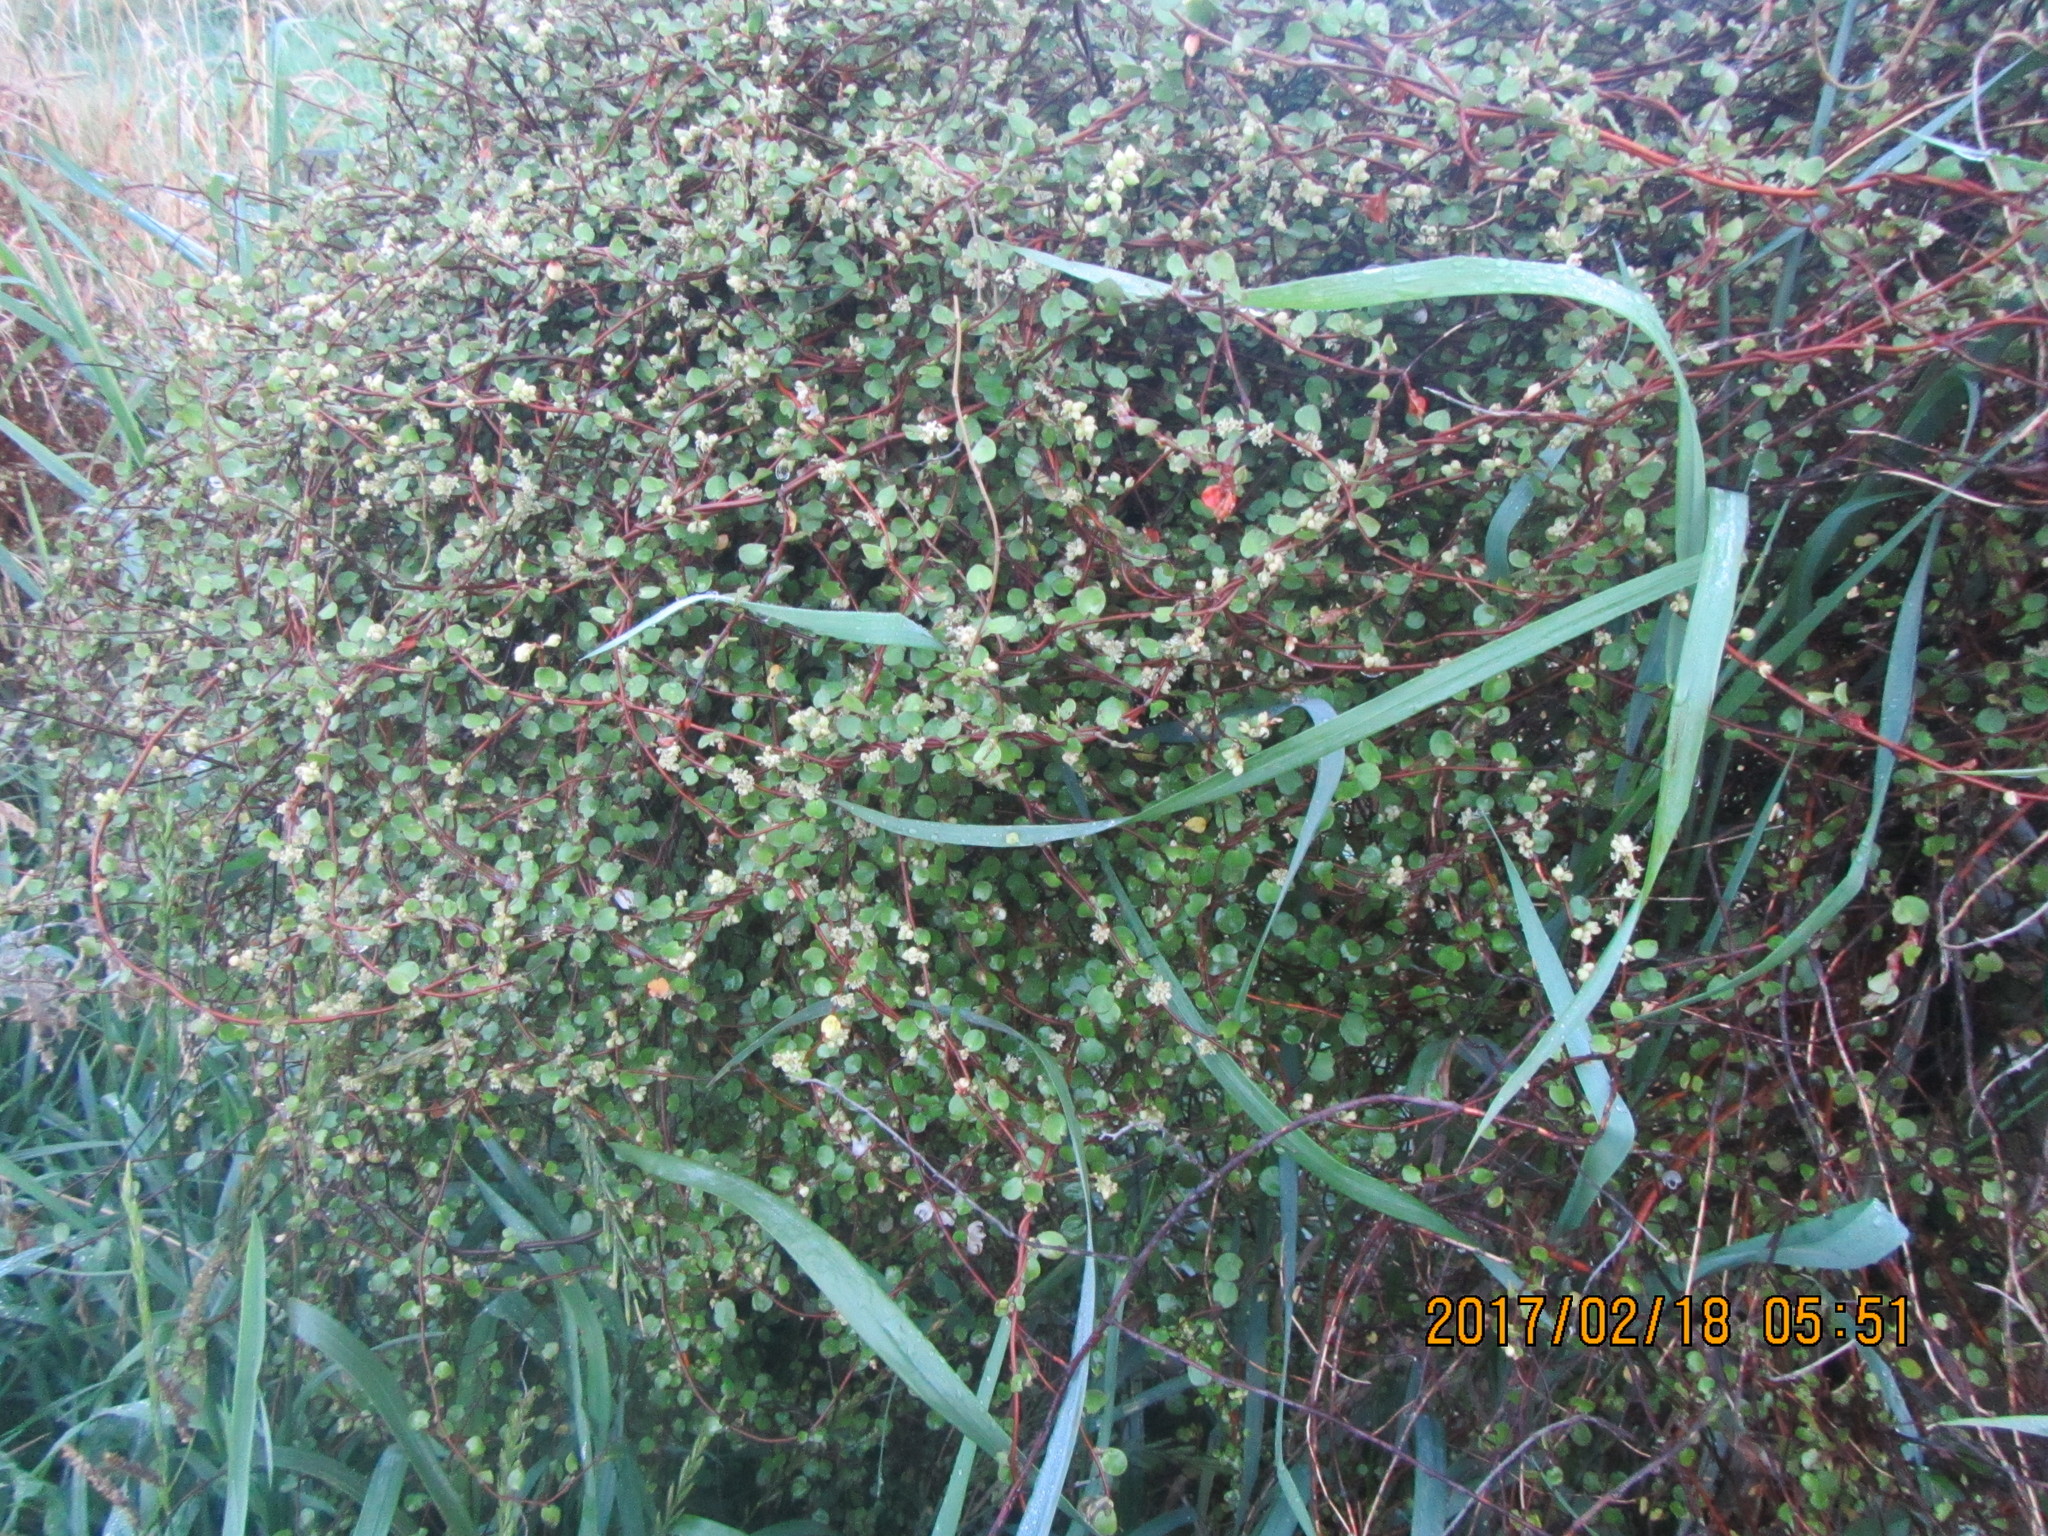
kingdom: Plantae
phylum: Tracheophyta
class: Magnoliopsida
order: Caryophyllales
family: Polygonaceae
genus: Muehlenbeckia
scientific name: Muehlenbeckia complexa
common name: Wireplant
